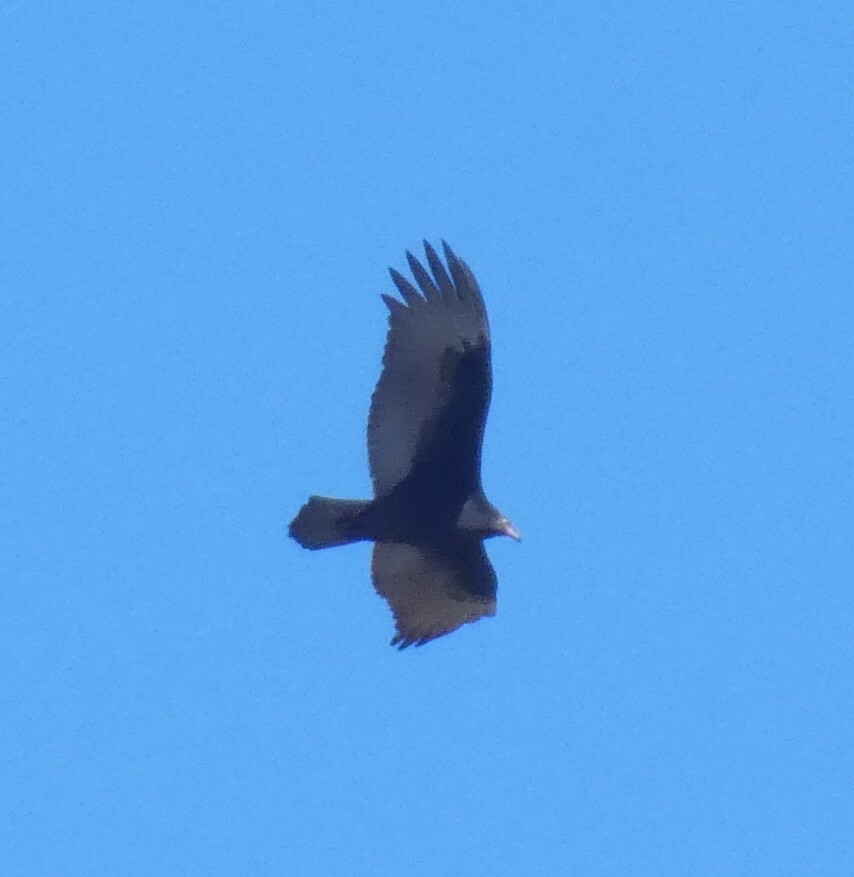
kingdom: Animalia
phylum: Chordata
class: Aves
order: Accipitriformes
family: Cathartidae
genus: Cathartes
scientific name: Cathartes aura
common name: Turkey vulture
